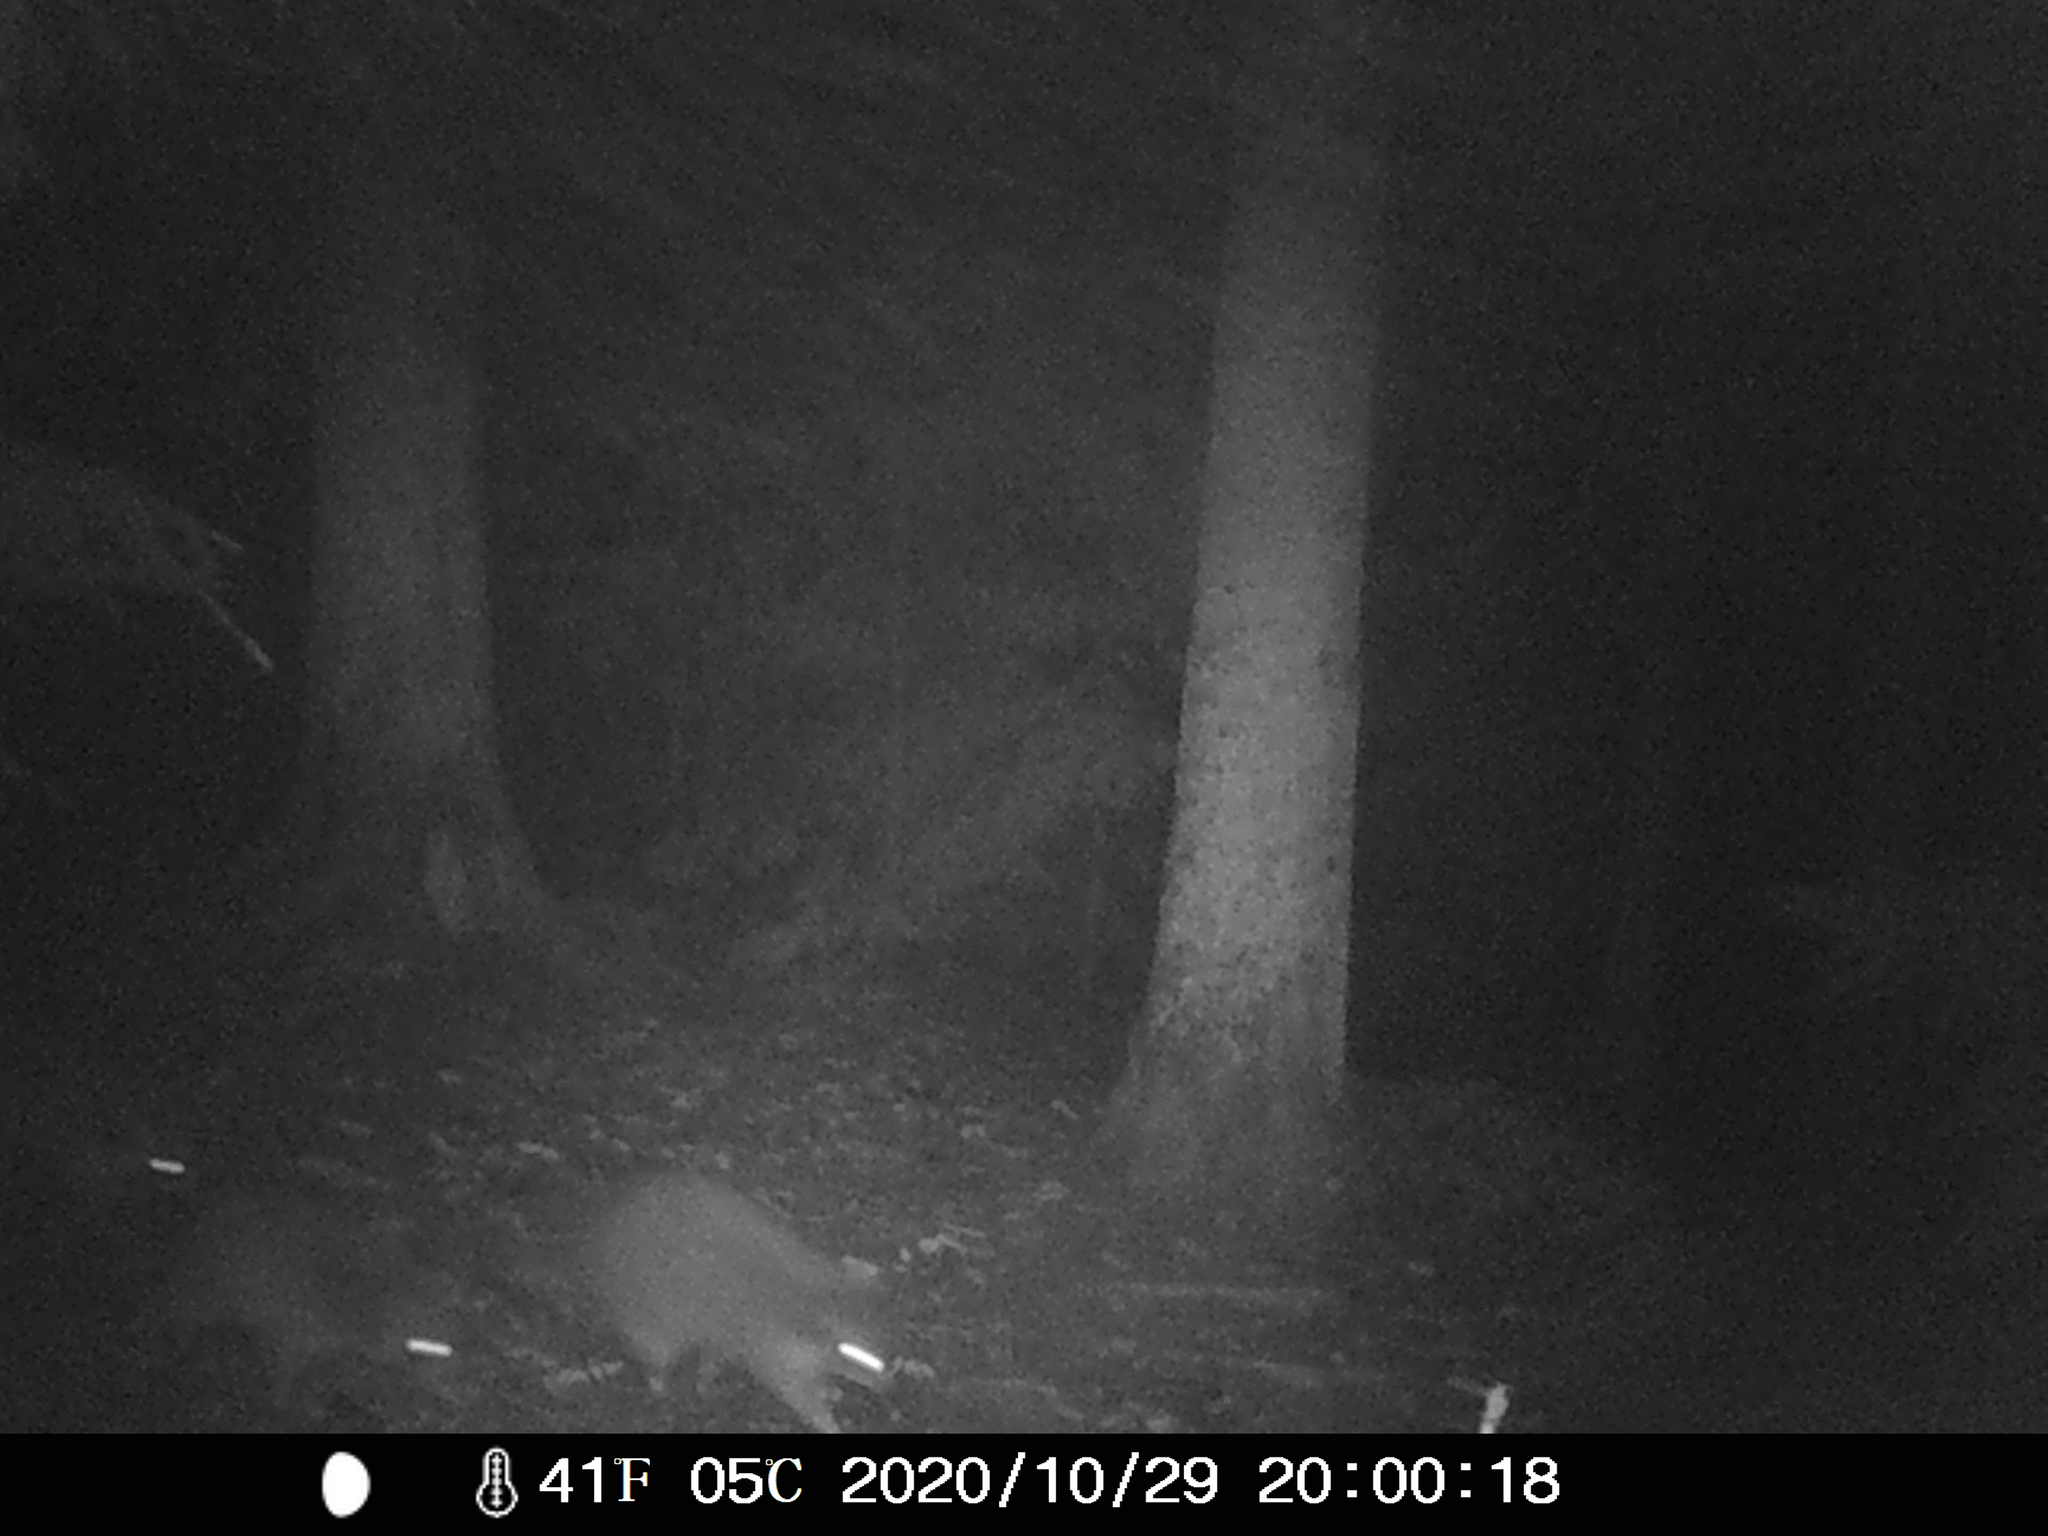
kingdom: Animalia
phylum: Chordata
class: Mammalia
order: Carnivora
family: Procyonidae
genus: Procyon
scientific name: Procyon lotor
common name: Raccoon
